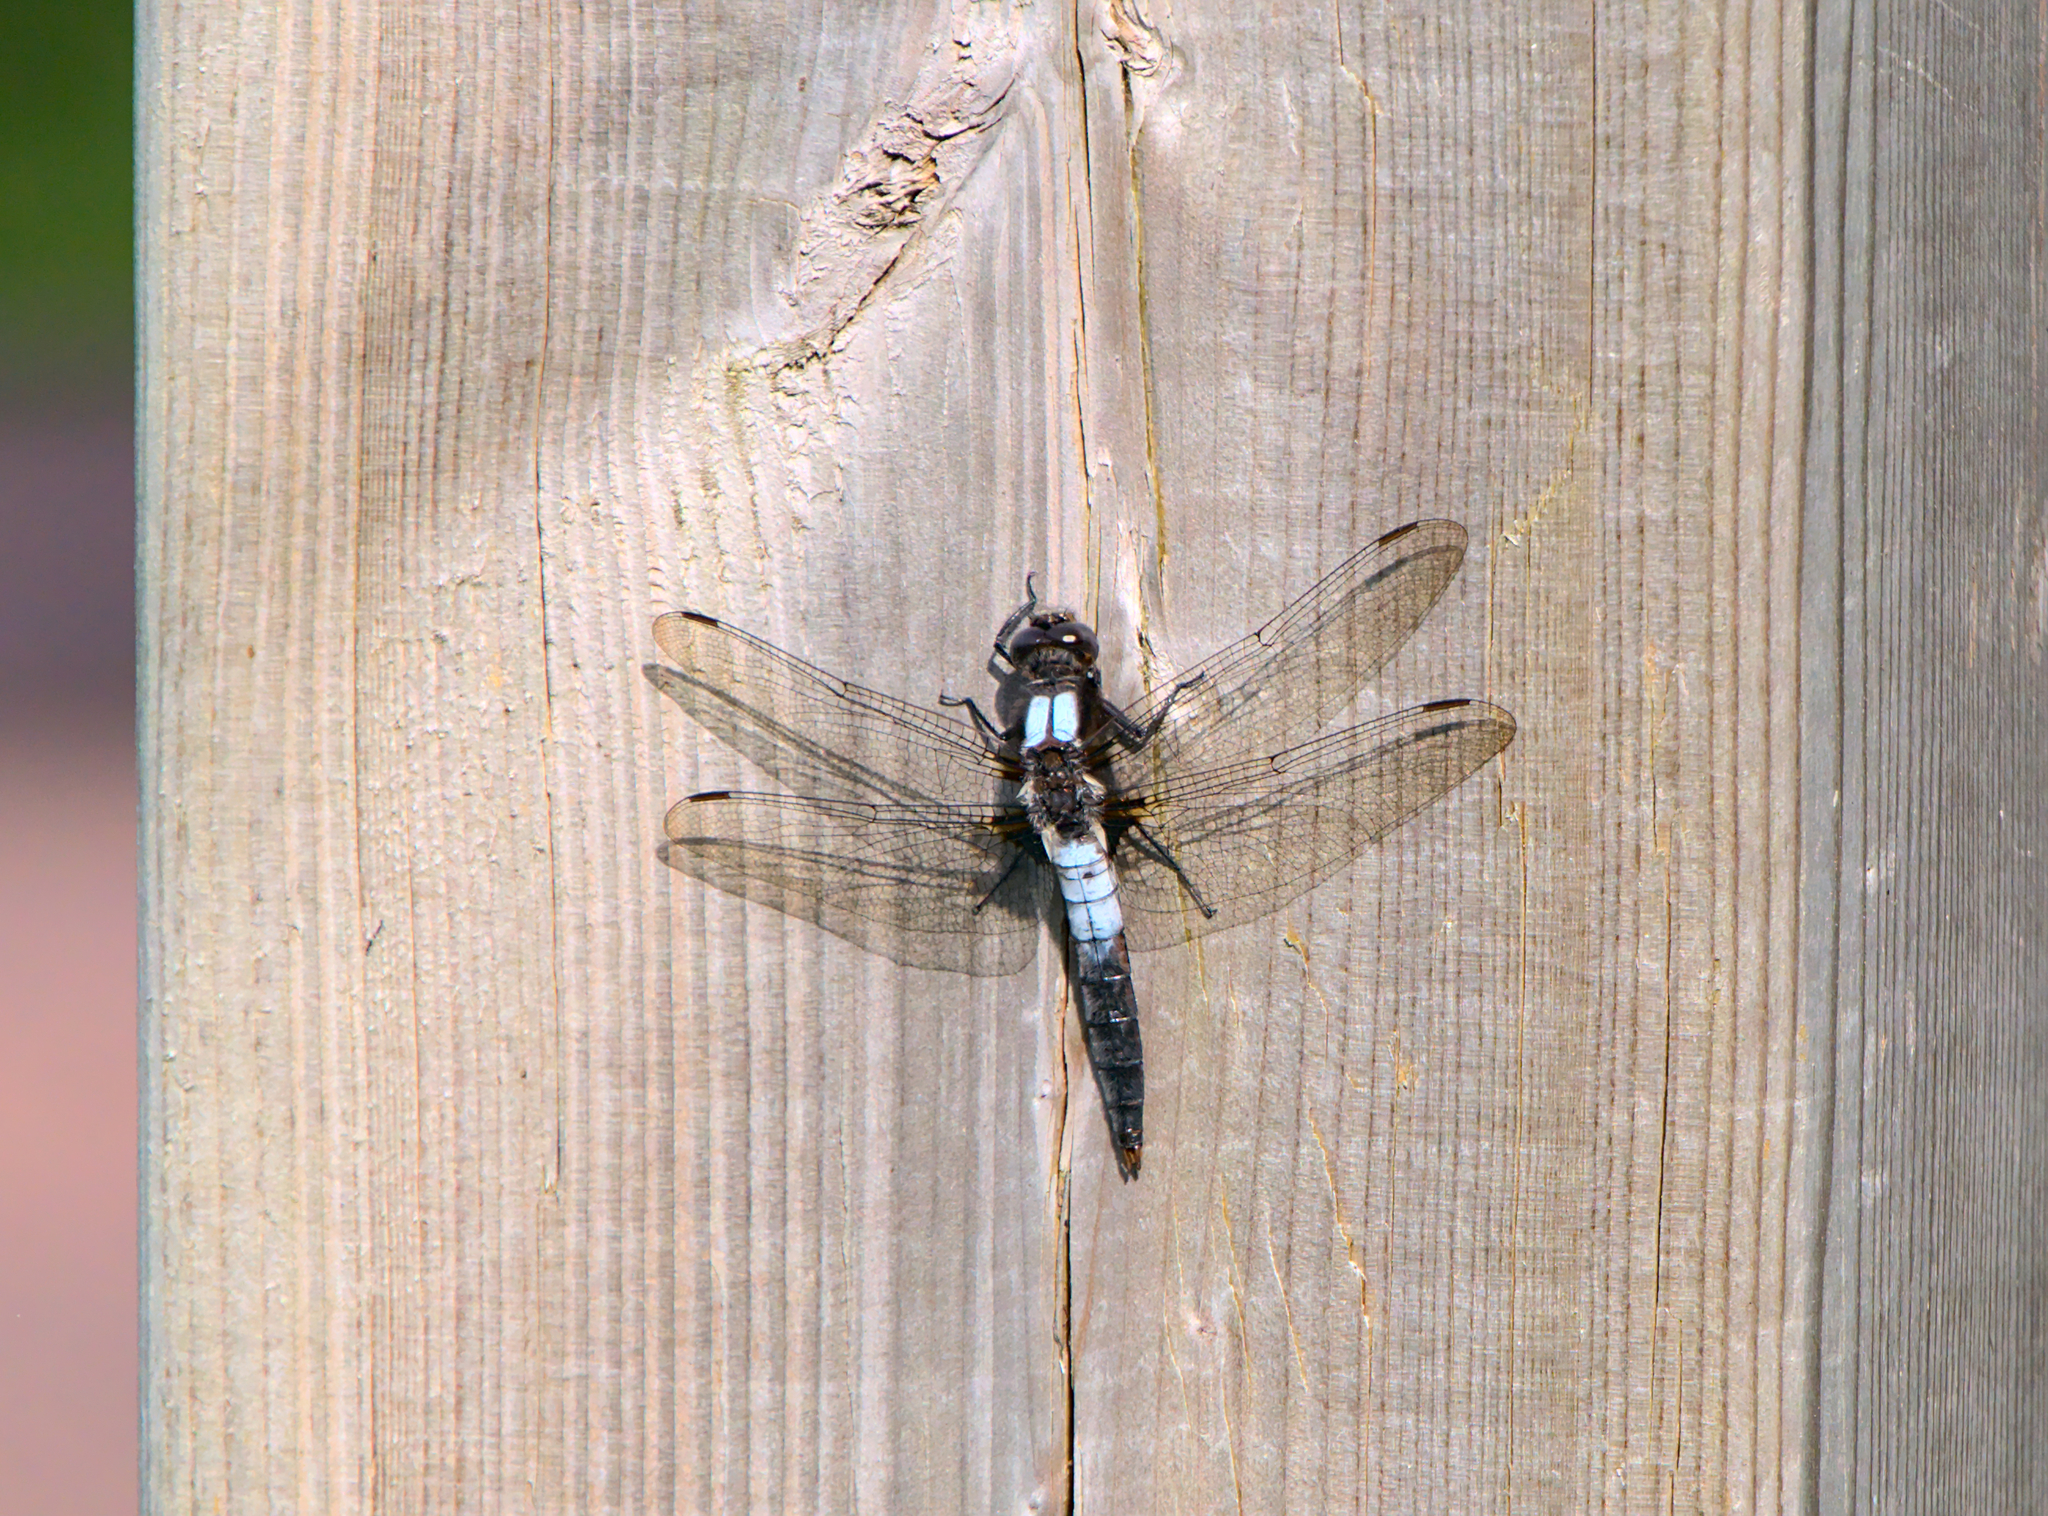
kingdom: Animalia
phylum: Arthropoda
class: Insecta
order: Odonata
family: Libellulidae
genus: Ladona
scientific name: Ladona julia
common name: Chalk-fronted corporal
